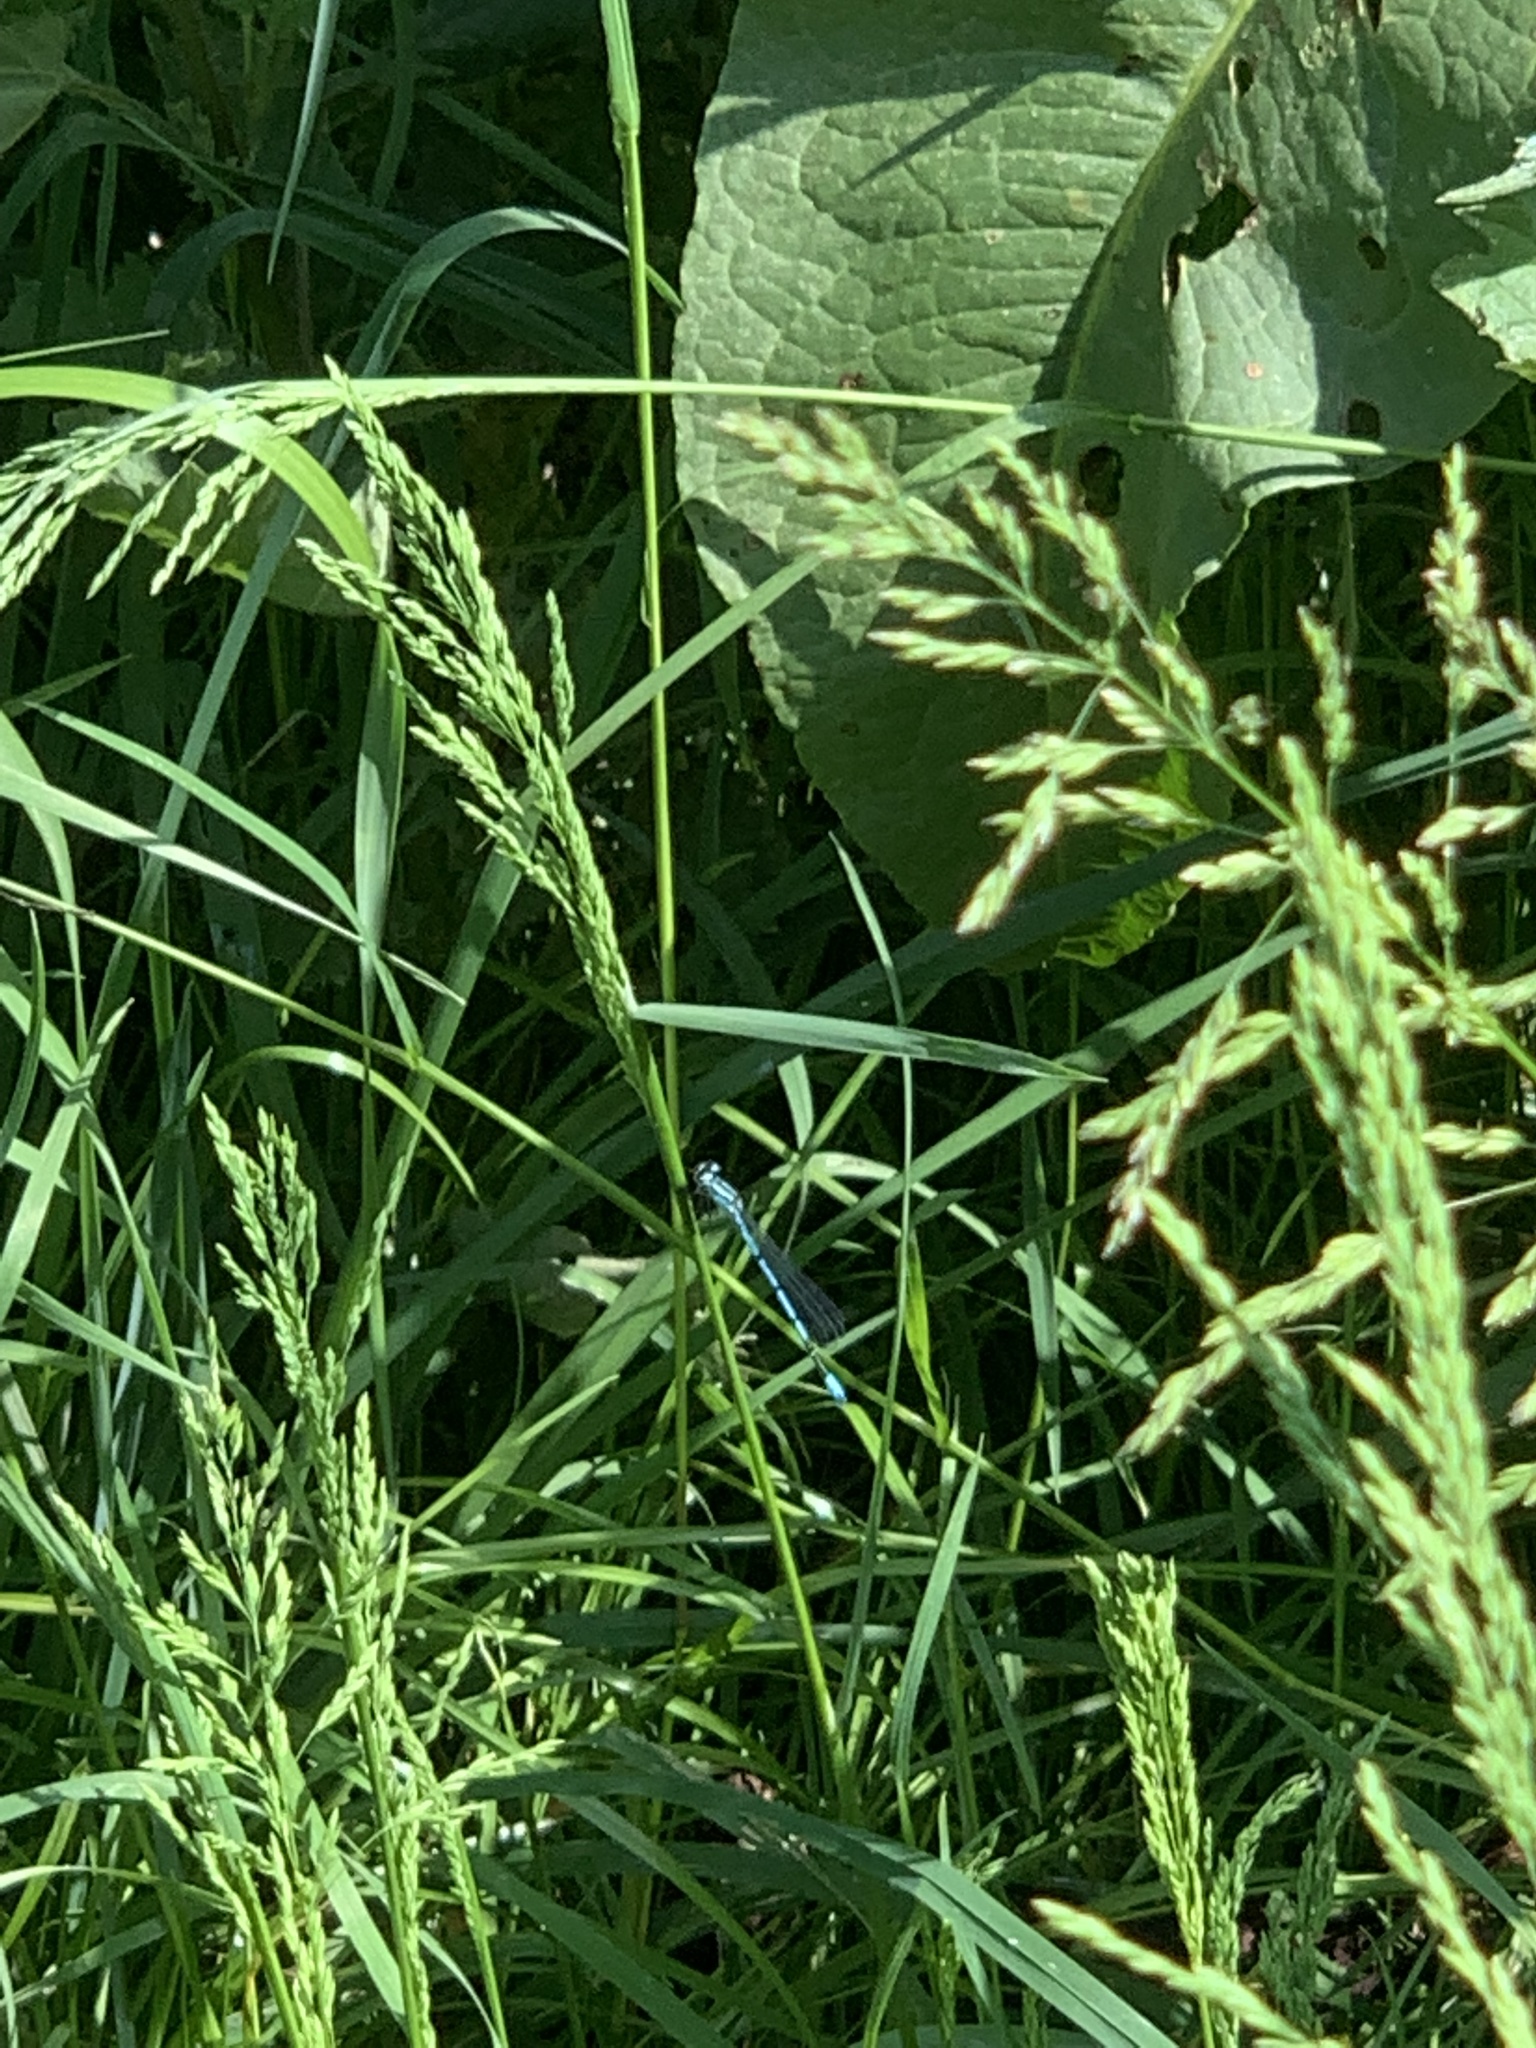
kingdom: Animalia
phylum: Arthropoda
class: Insecta
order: Odonata
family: Coenagrionidae
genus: Coenagrion
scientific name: Coenagrion puella
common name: Azure damselfly
